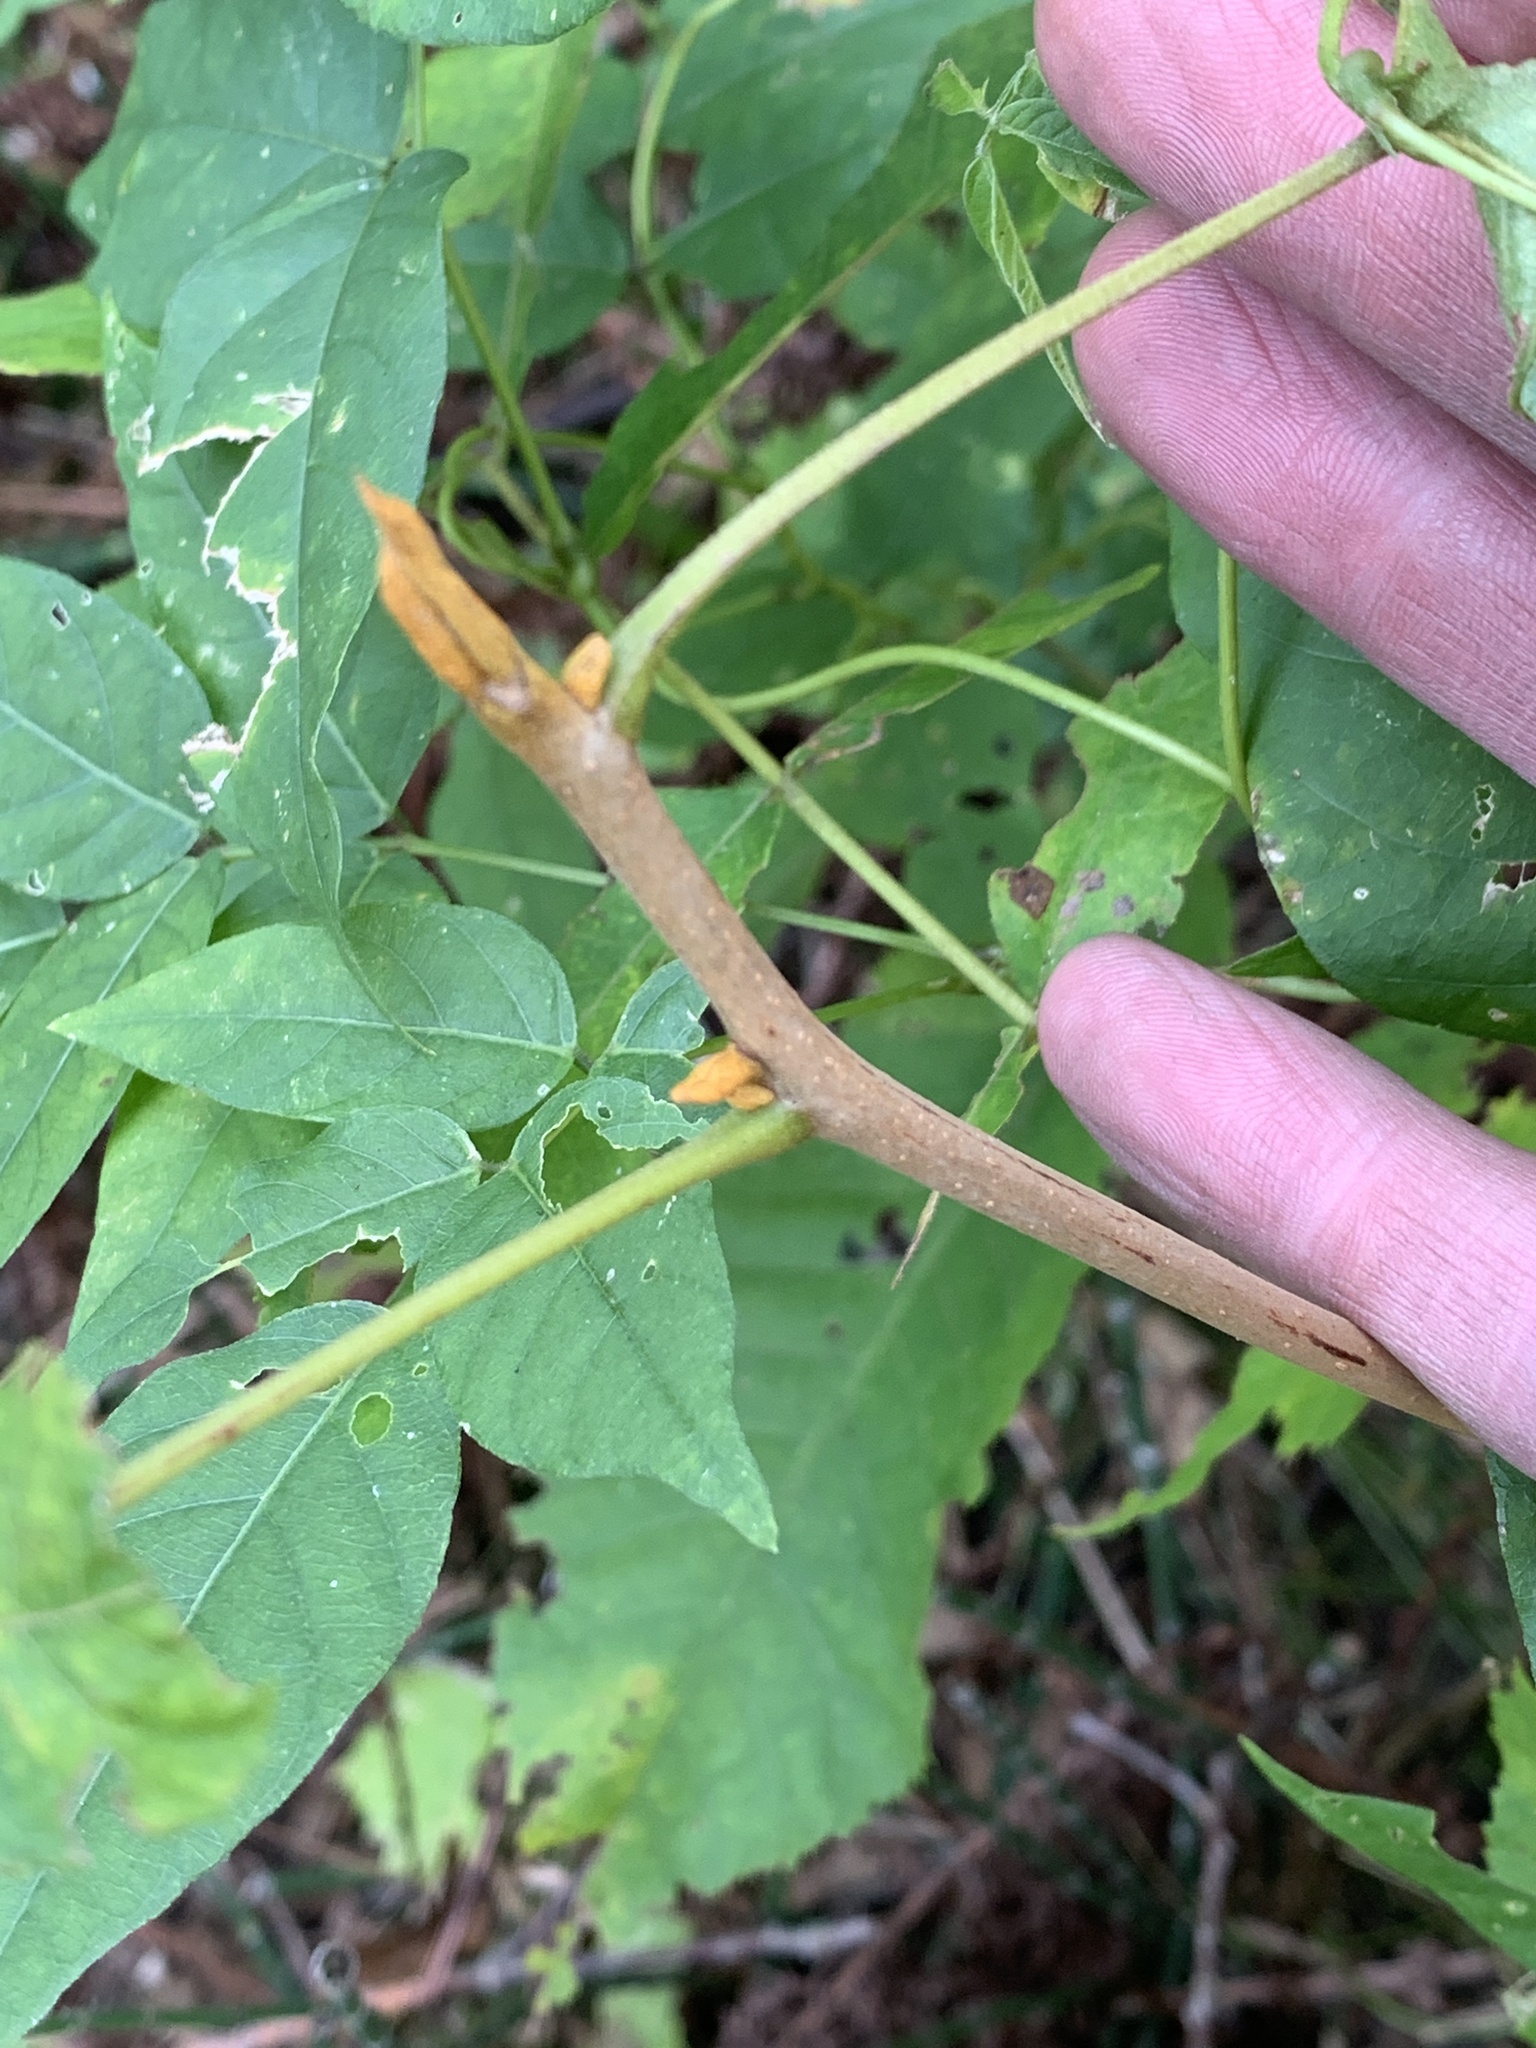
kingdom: Plantae
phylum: Tracheophyta
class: Magnoliopsida
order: Fagales
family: Juglandaceae
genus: Carya
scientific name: Carya cordiformis
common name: Bitternut hickory
